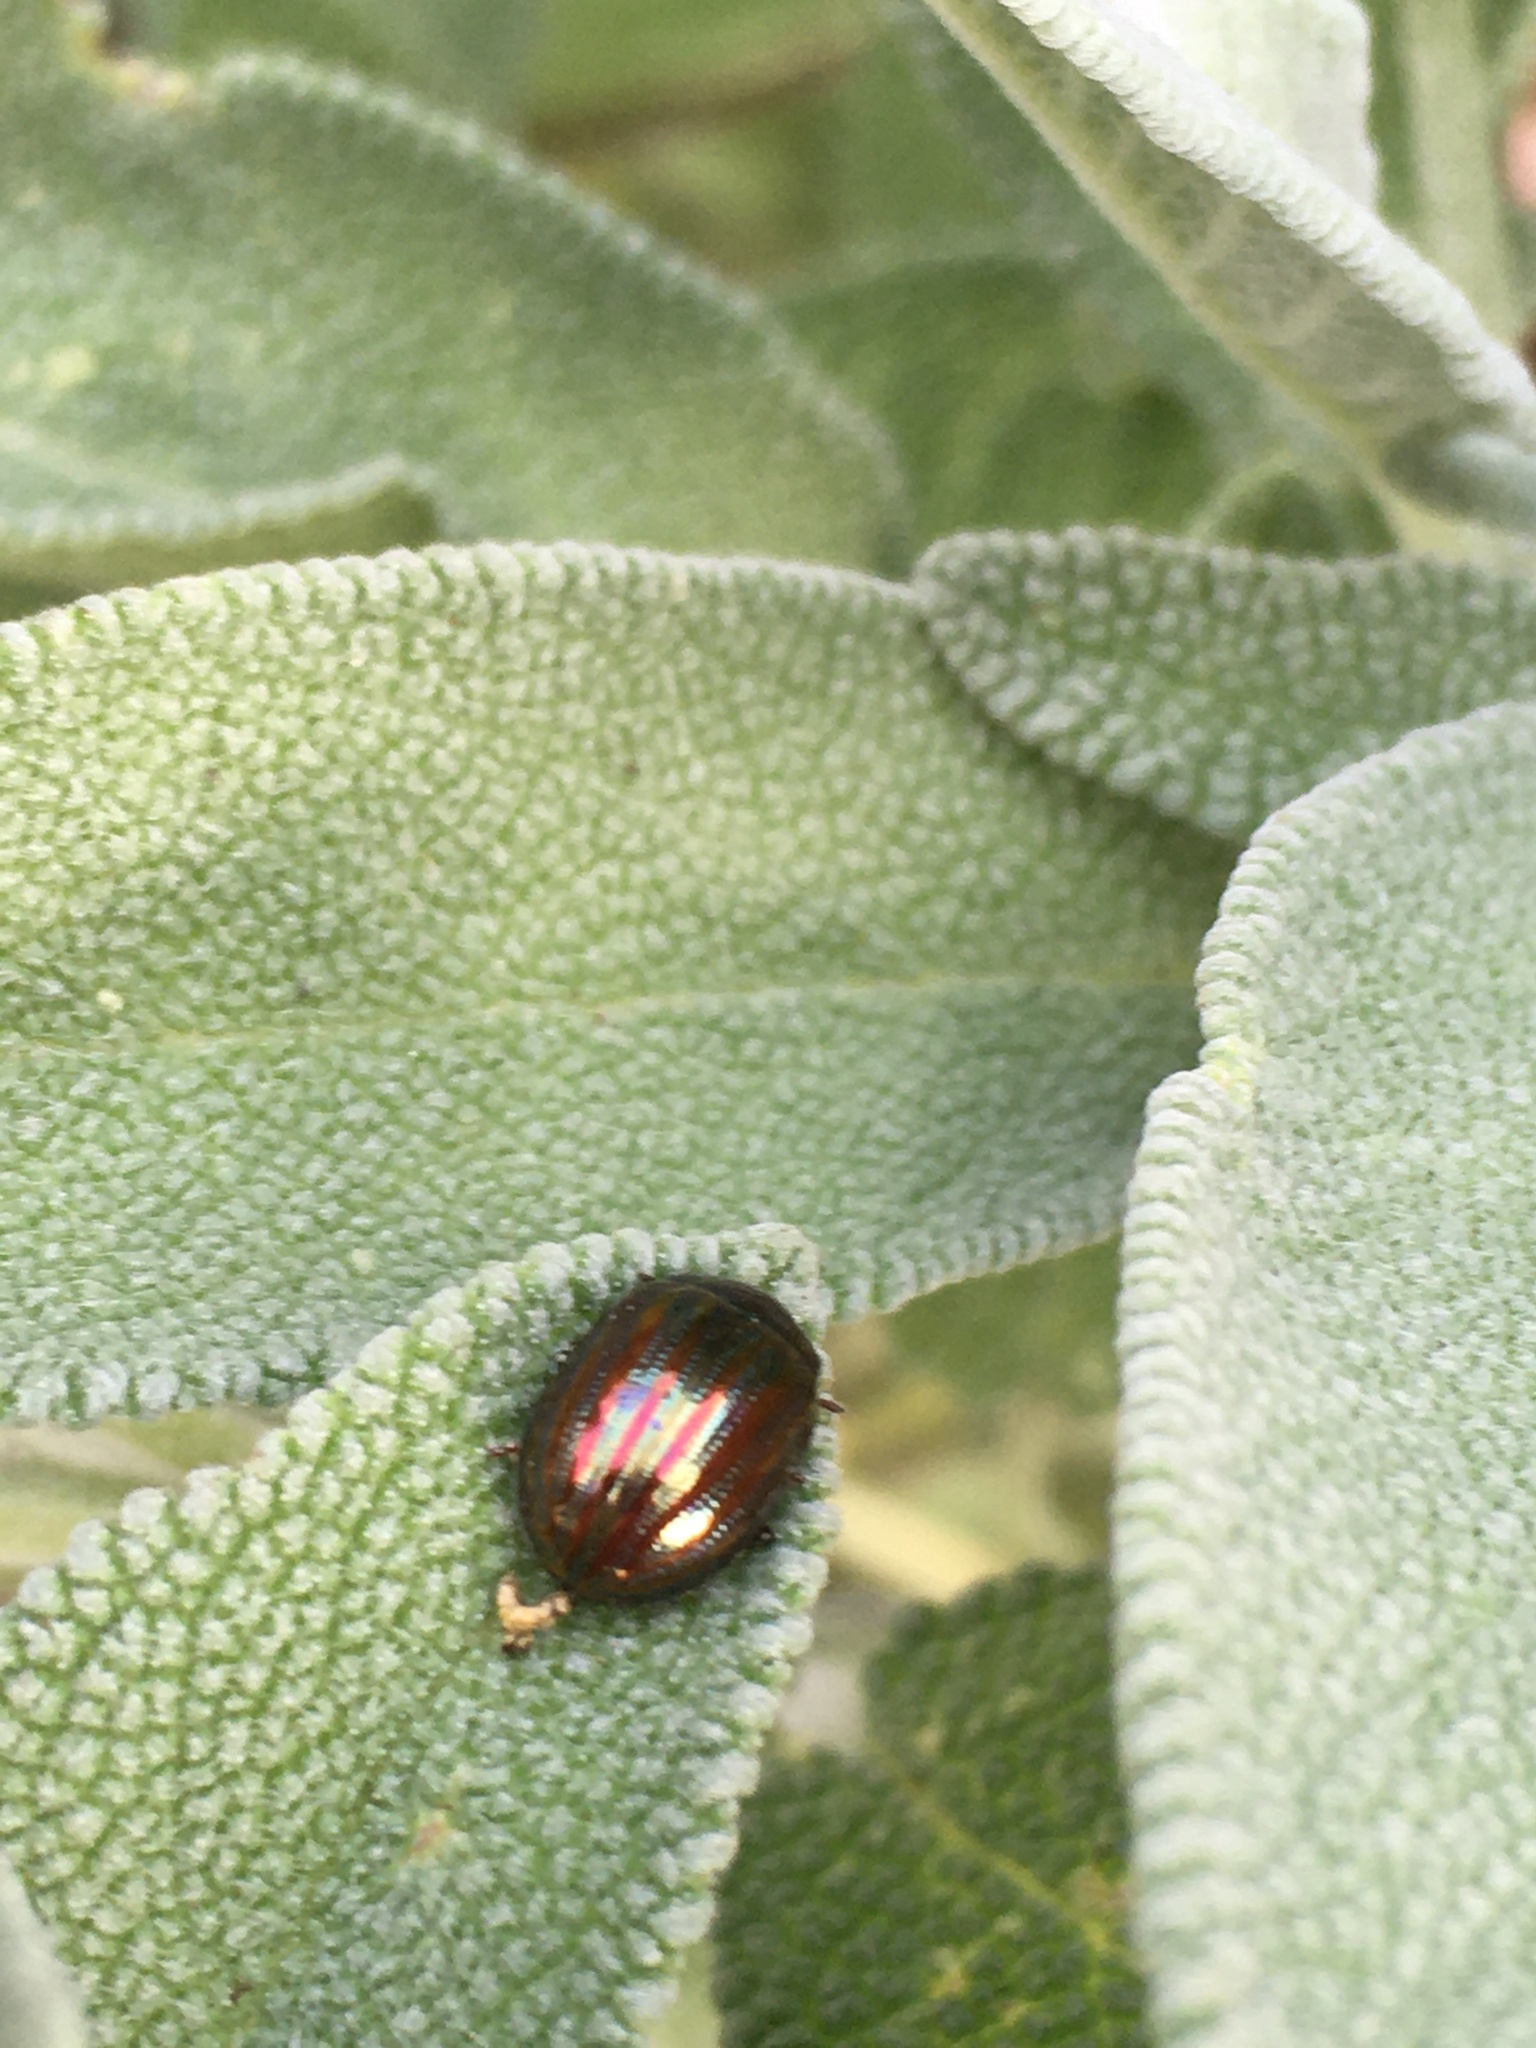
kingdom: Animalia
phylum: Arthropoda
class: Insecta
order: Coleoptera
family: Chrysomelidae
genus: Chrysolina
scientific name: Chrysolina americana
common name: Rosemary beetle
